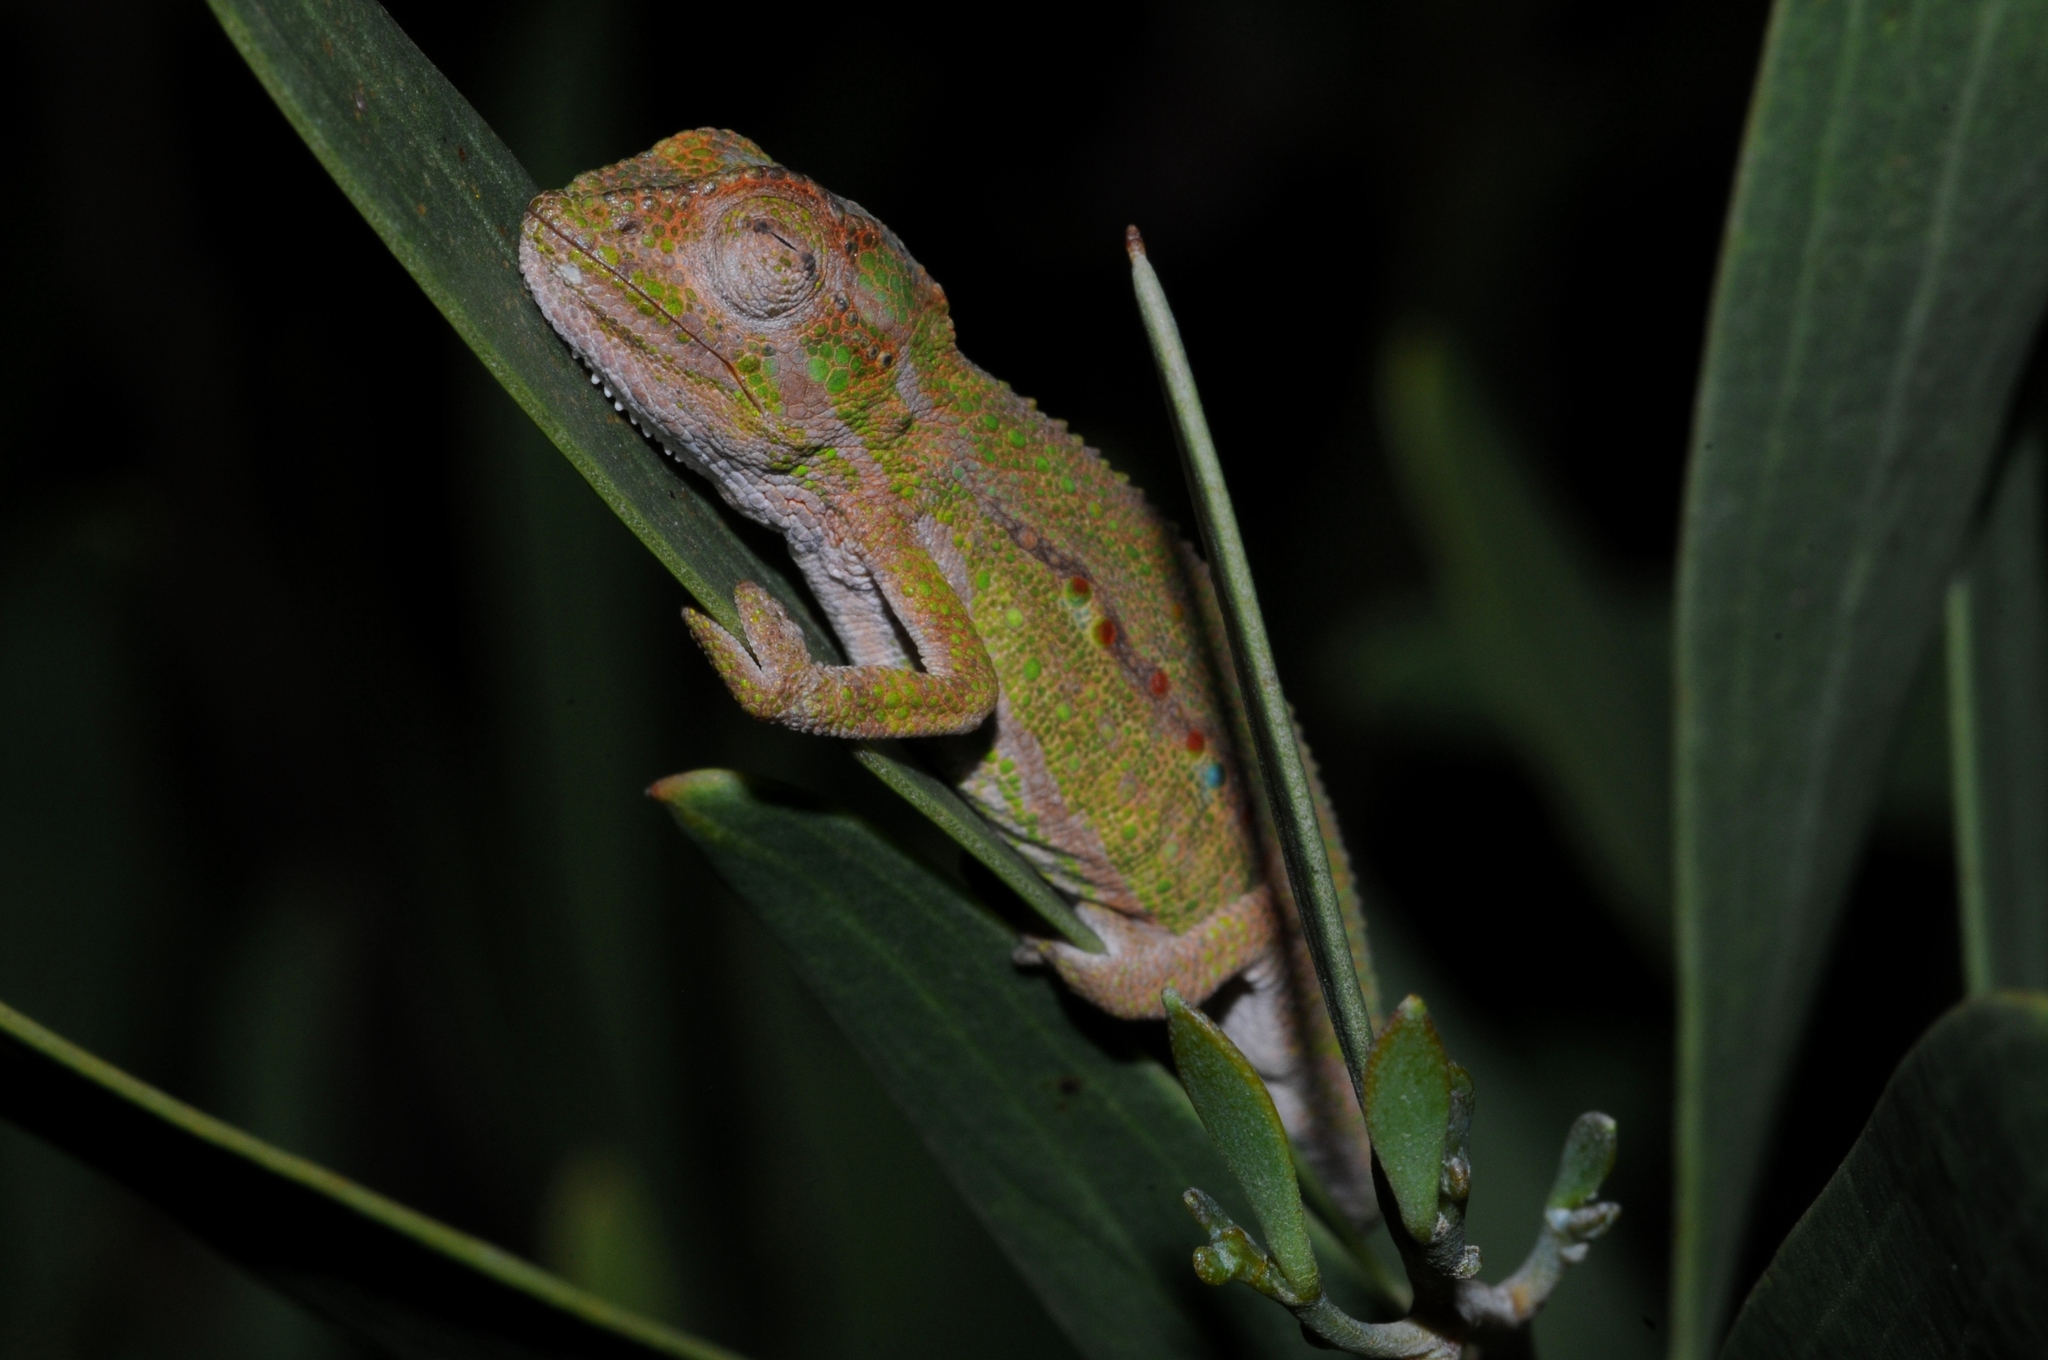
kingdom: Animalia
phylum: Chordata
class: Squamata
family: Chamaeleonidae
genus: Bradypodion
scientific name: Bradypodion pumilum
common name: Cape dwarf chameleon
